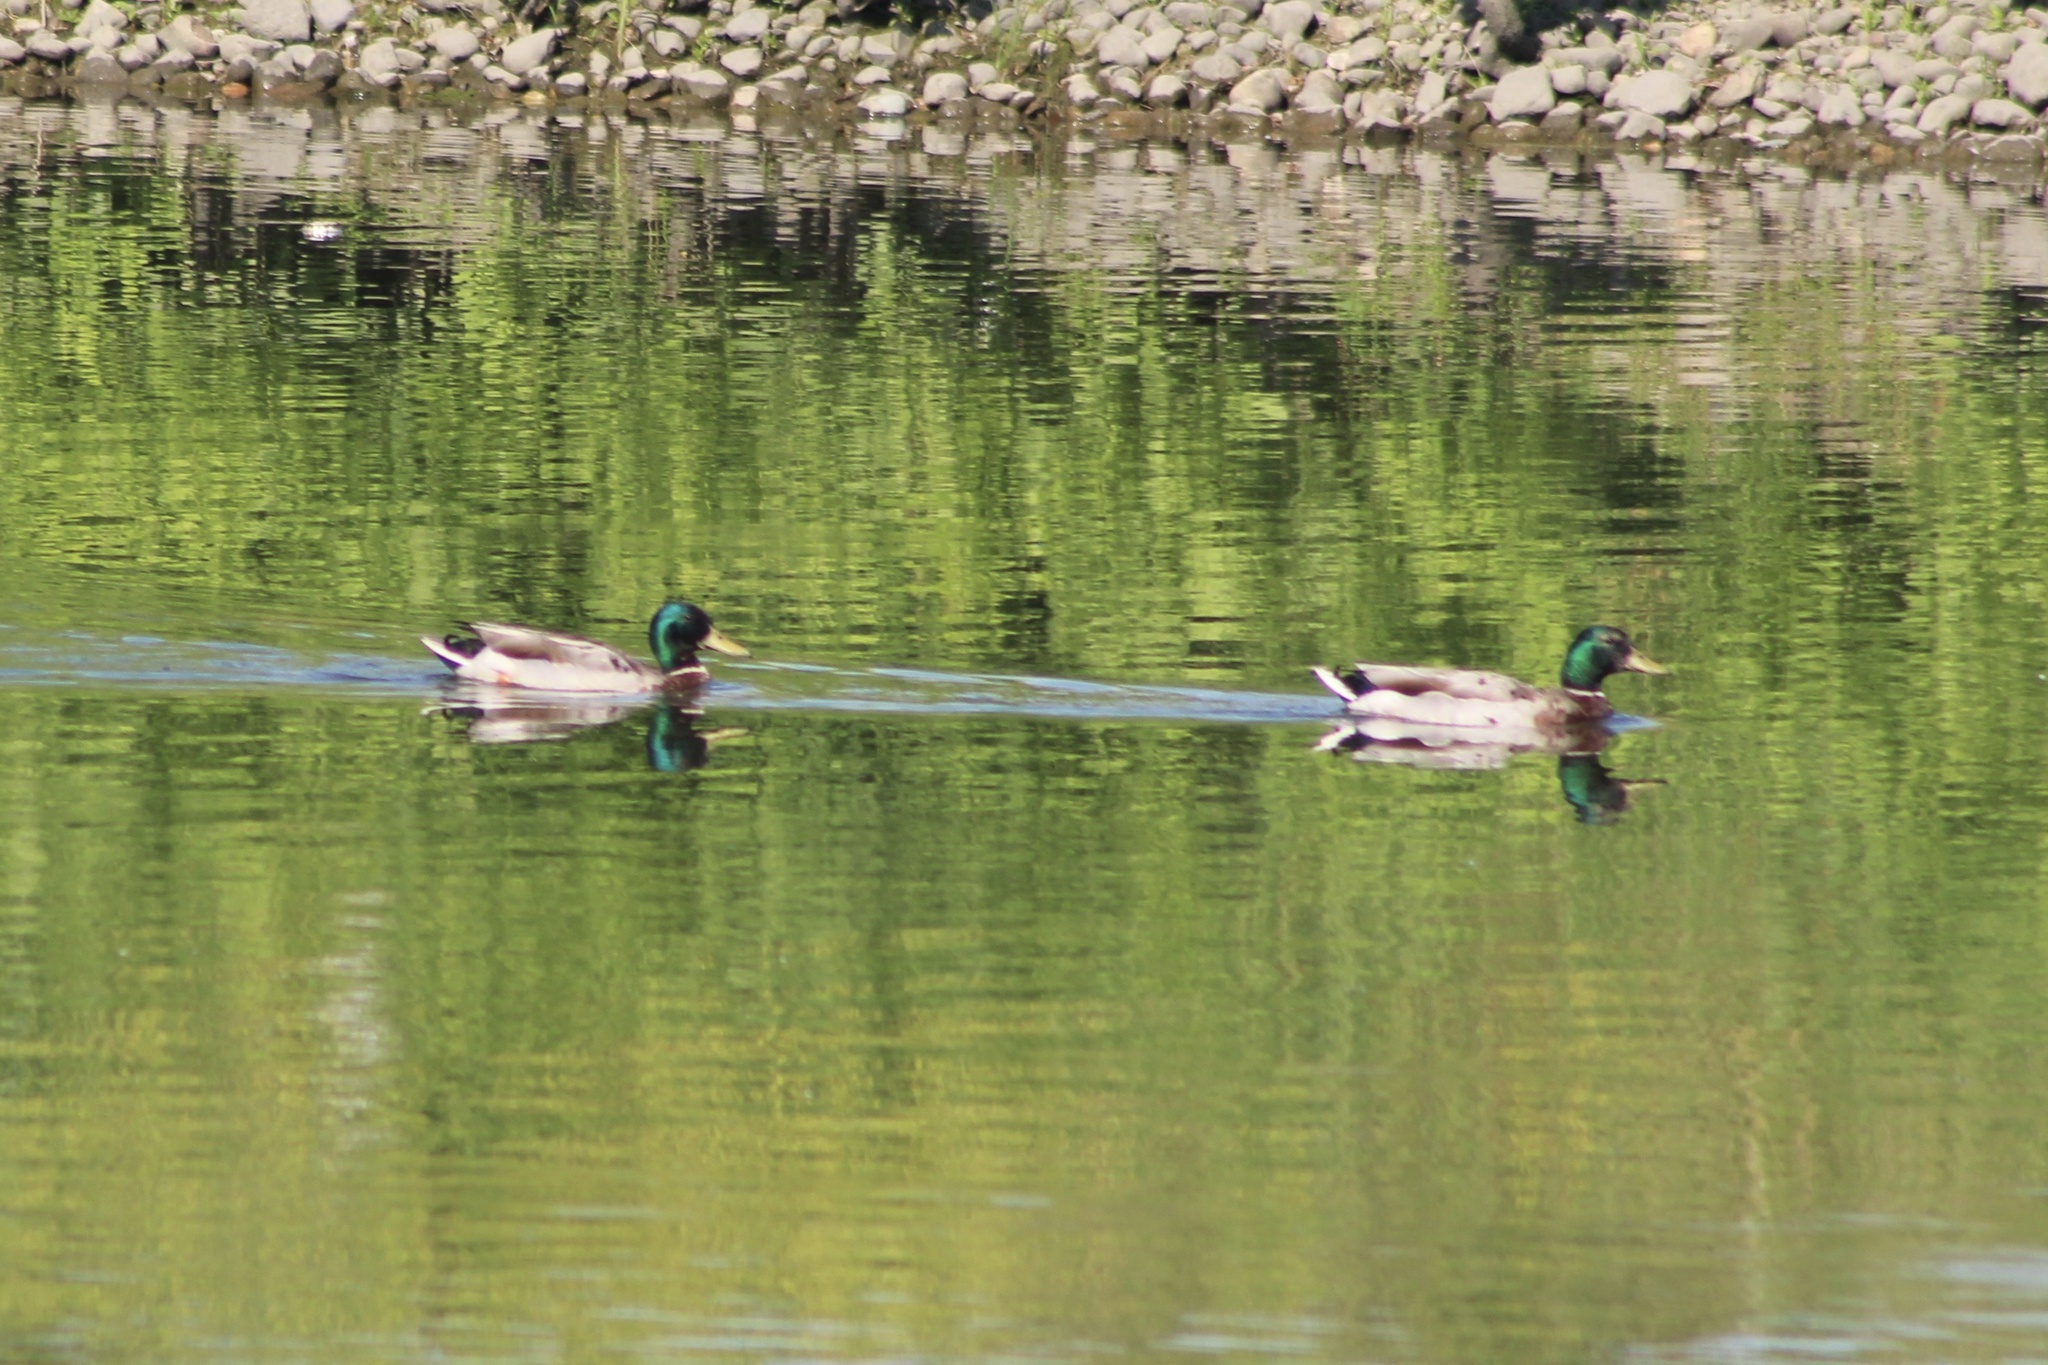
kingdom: Animalia
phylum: Chordata
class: Aves
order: Anseriformes
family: Anatidae
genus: Anas
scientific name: Anas platyrhynchos
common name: Mallard
